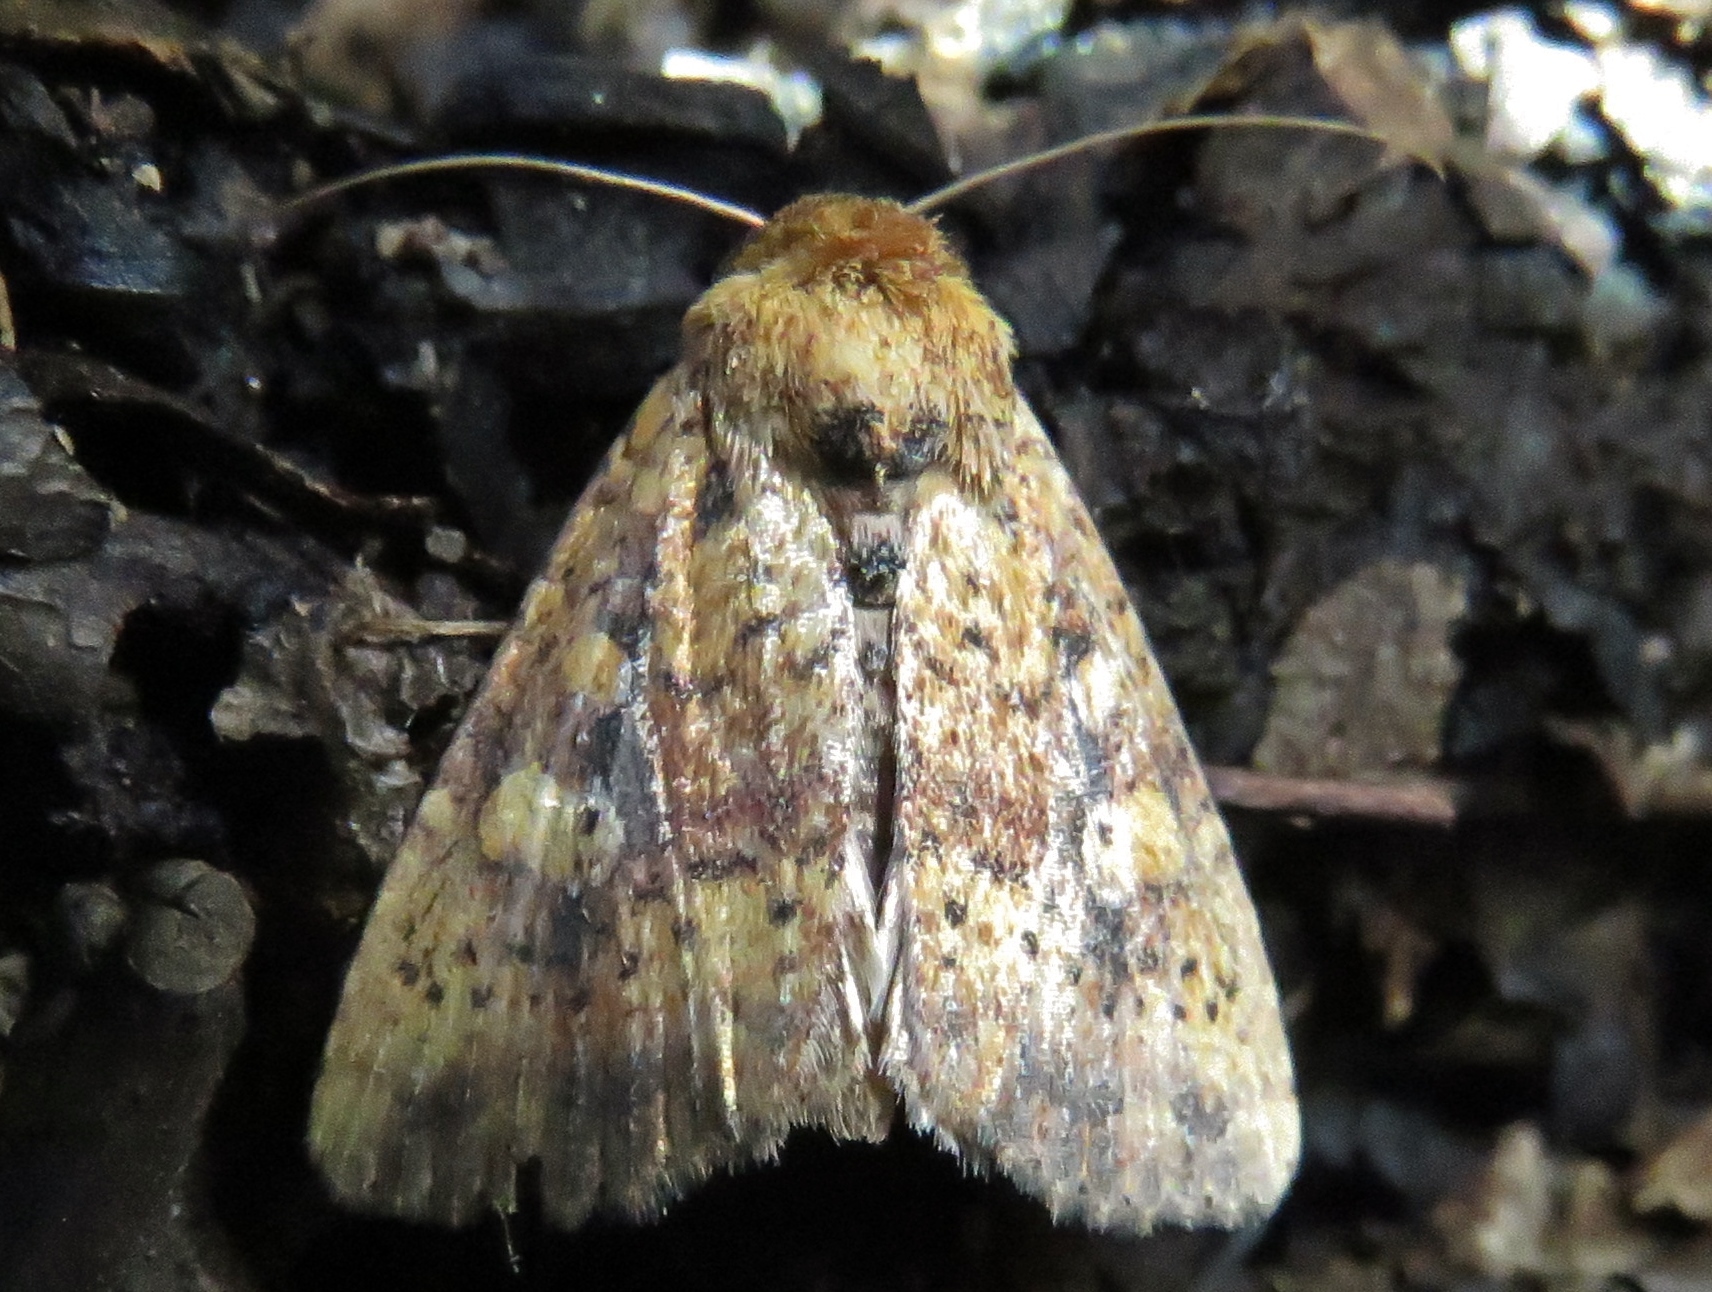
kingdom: Animalia
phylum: Arthropoda
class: Insecta
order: Lepidoptera
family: Noctuidae
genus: Perigea
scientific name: Perigea xanthioides
